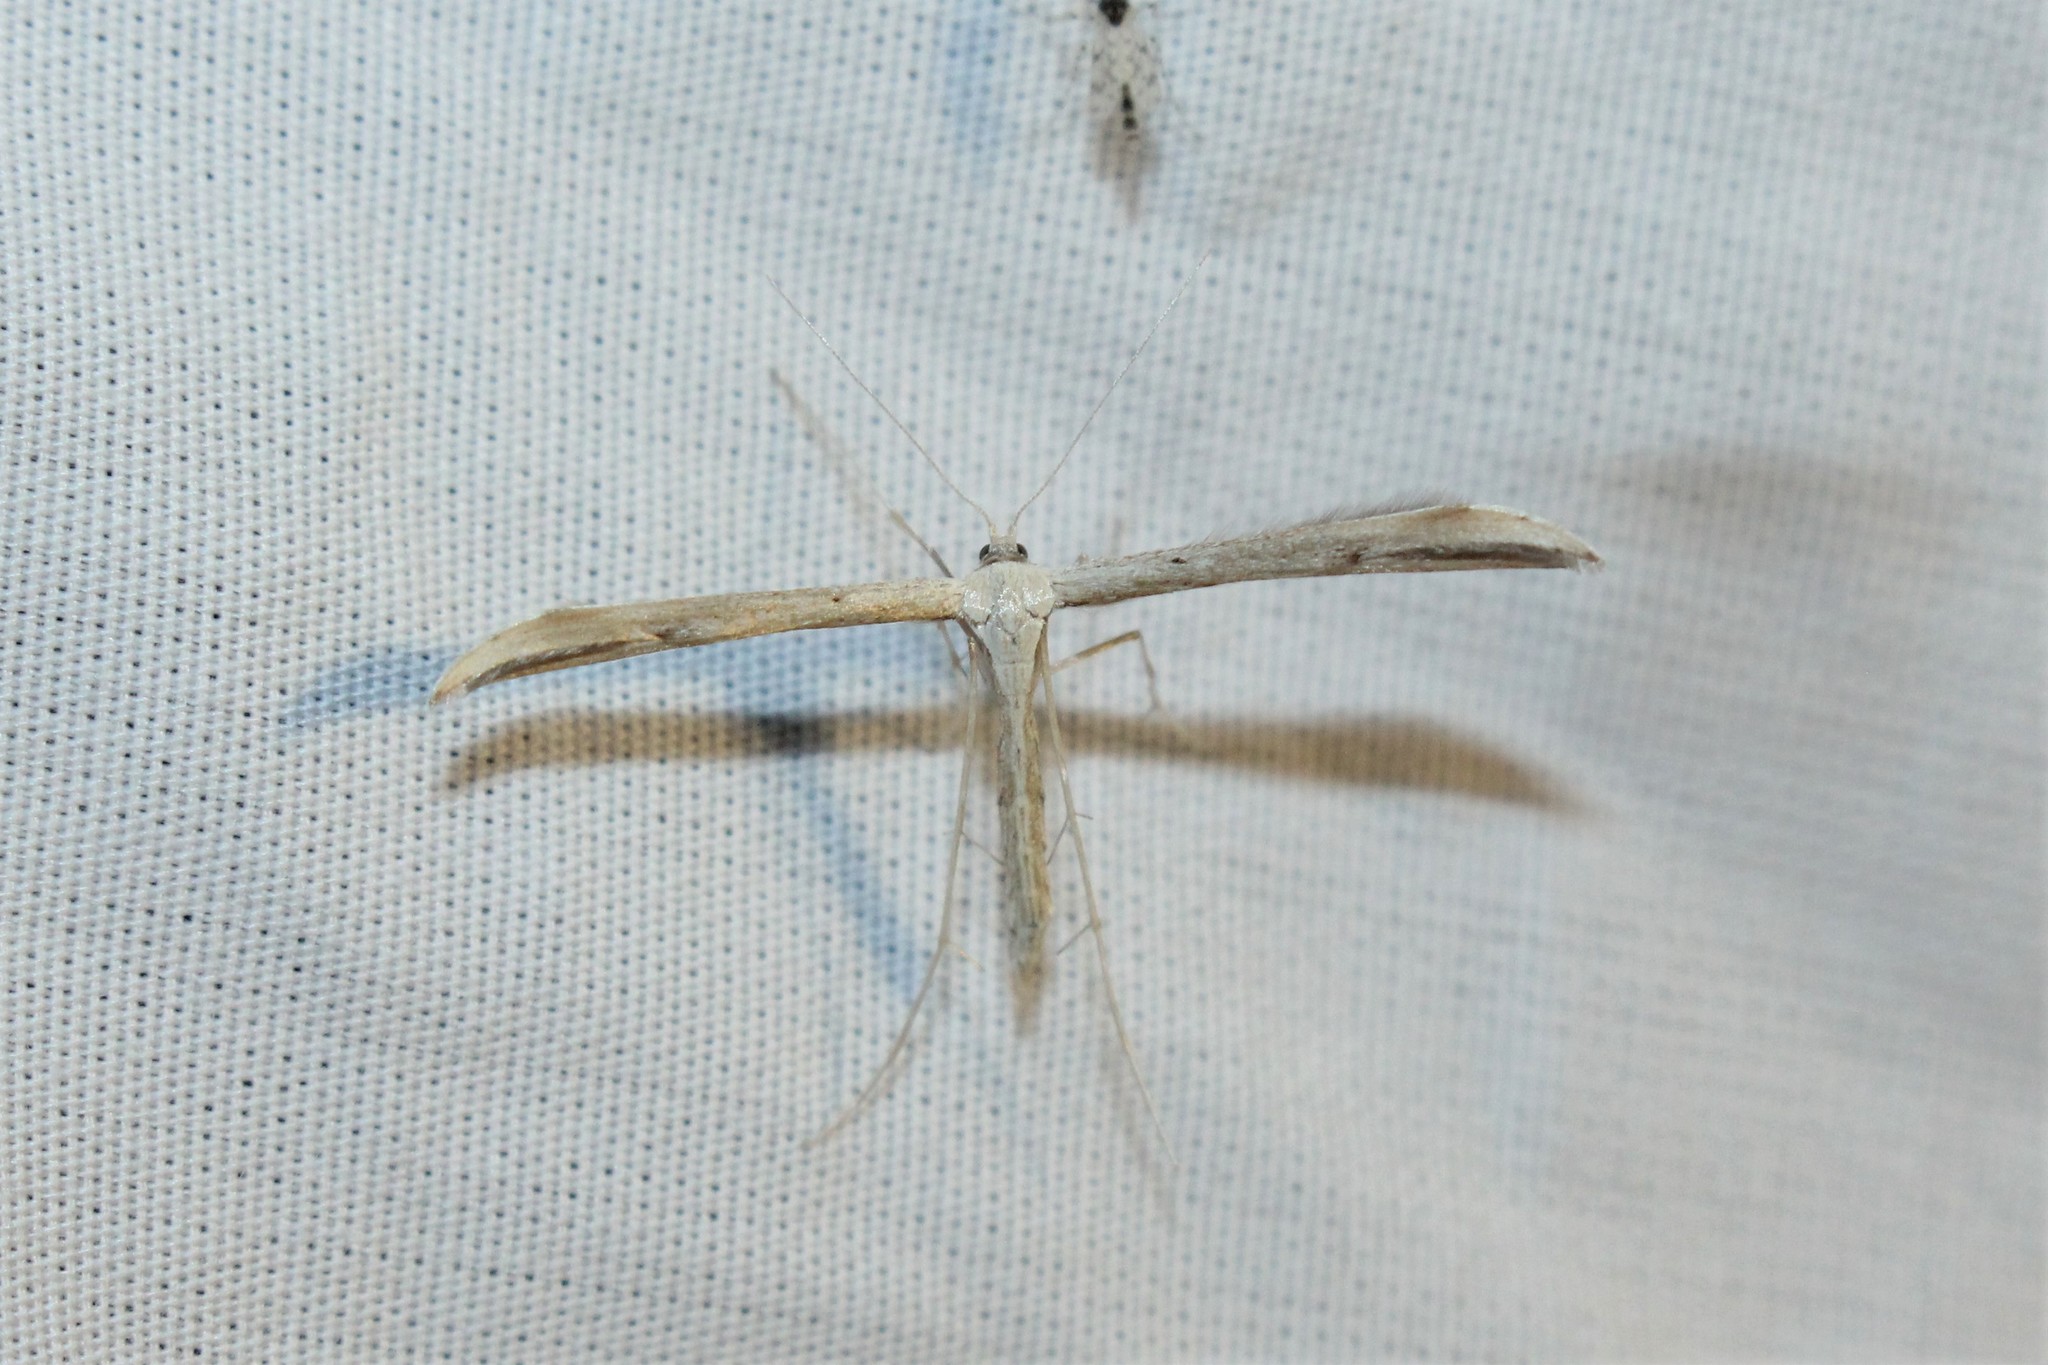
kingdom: Animalia
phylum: Arthropoda
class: Insecta
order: Lepidoptera
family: Pterophoridae
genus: Emmelina
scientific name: Emmelina monodactyla
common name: Common plume
